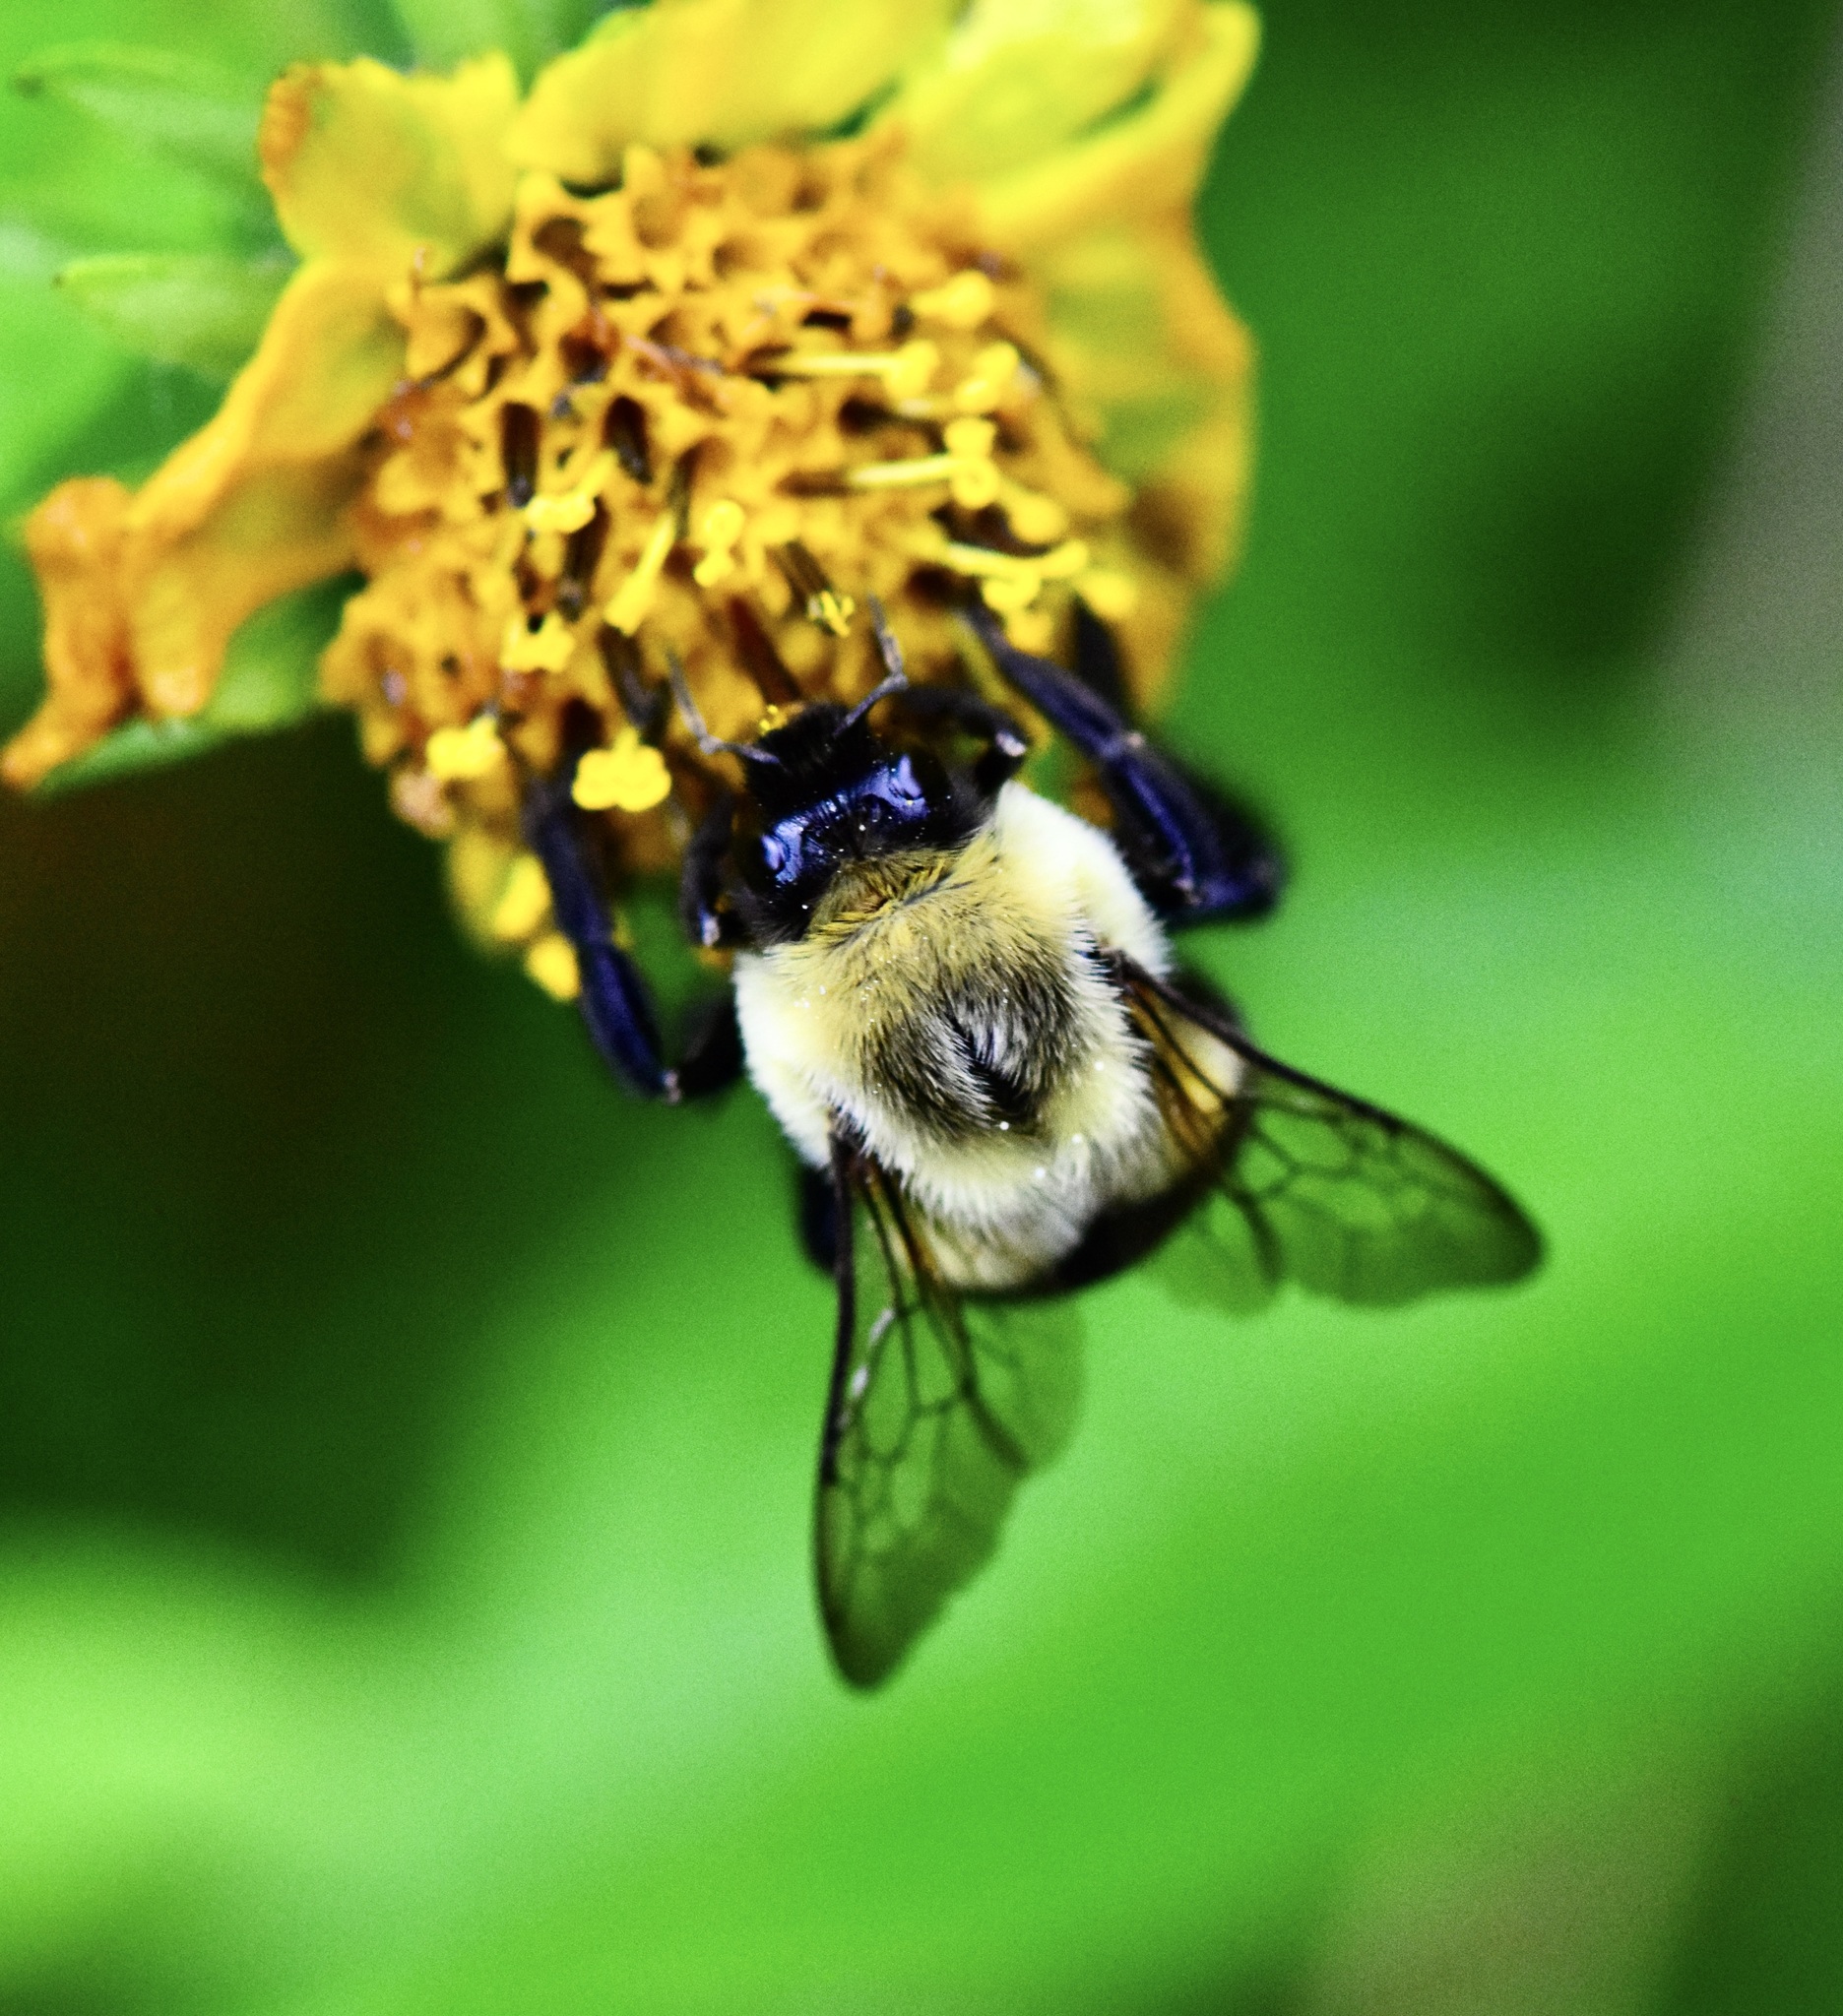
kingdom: Animalia
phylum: Arthropoda
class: Insecta
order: Hymenoptera
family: Apidae
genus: Bombus
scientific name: Bombus impatiens
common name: Common eastern bumble bee
